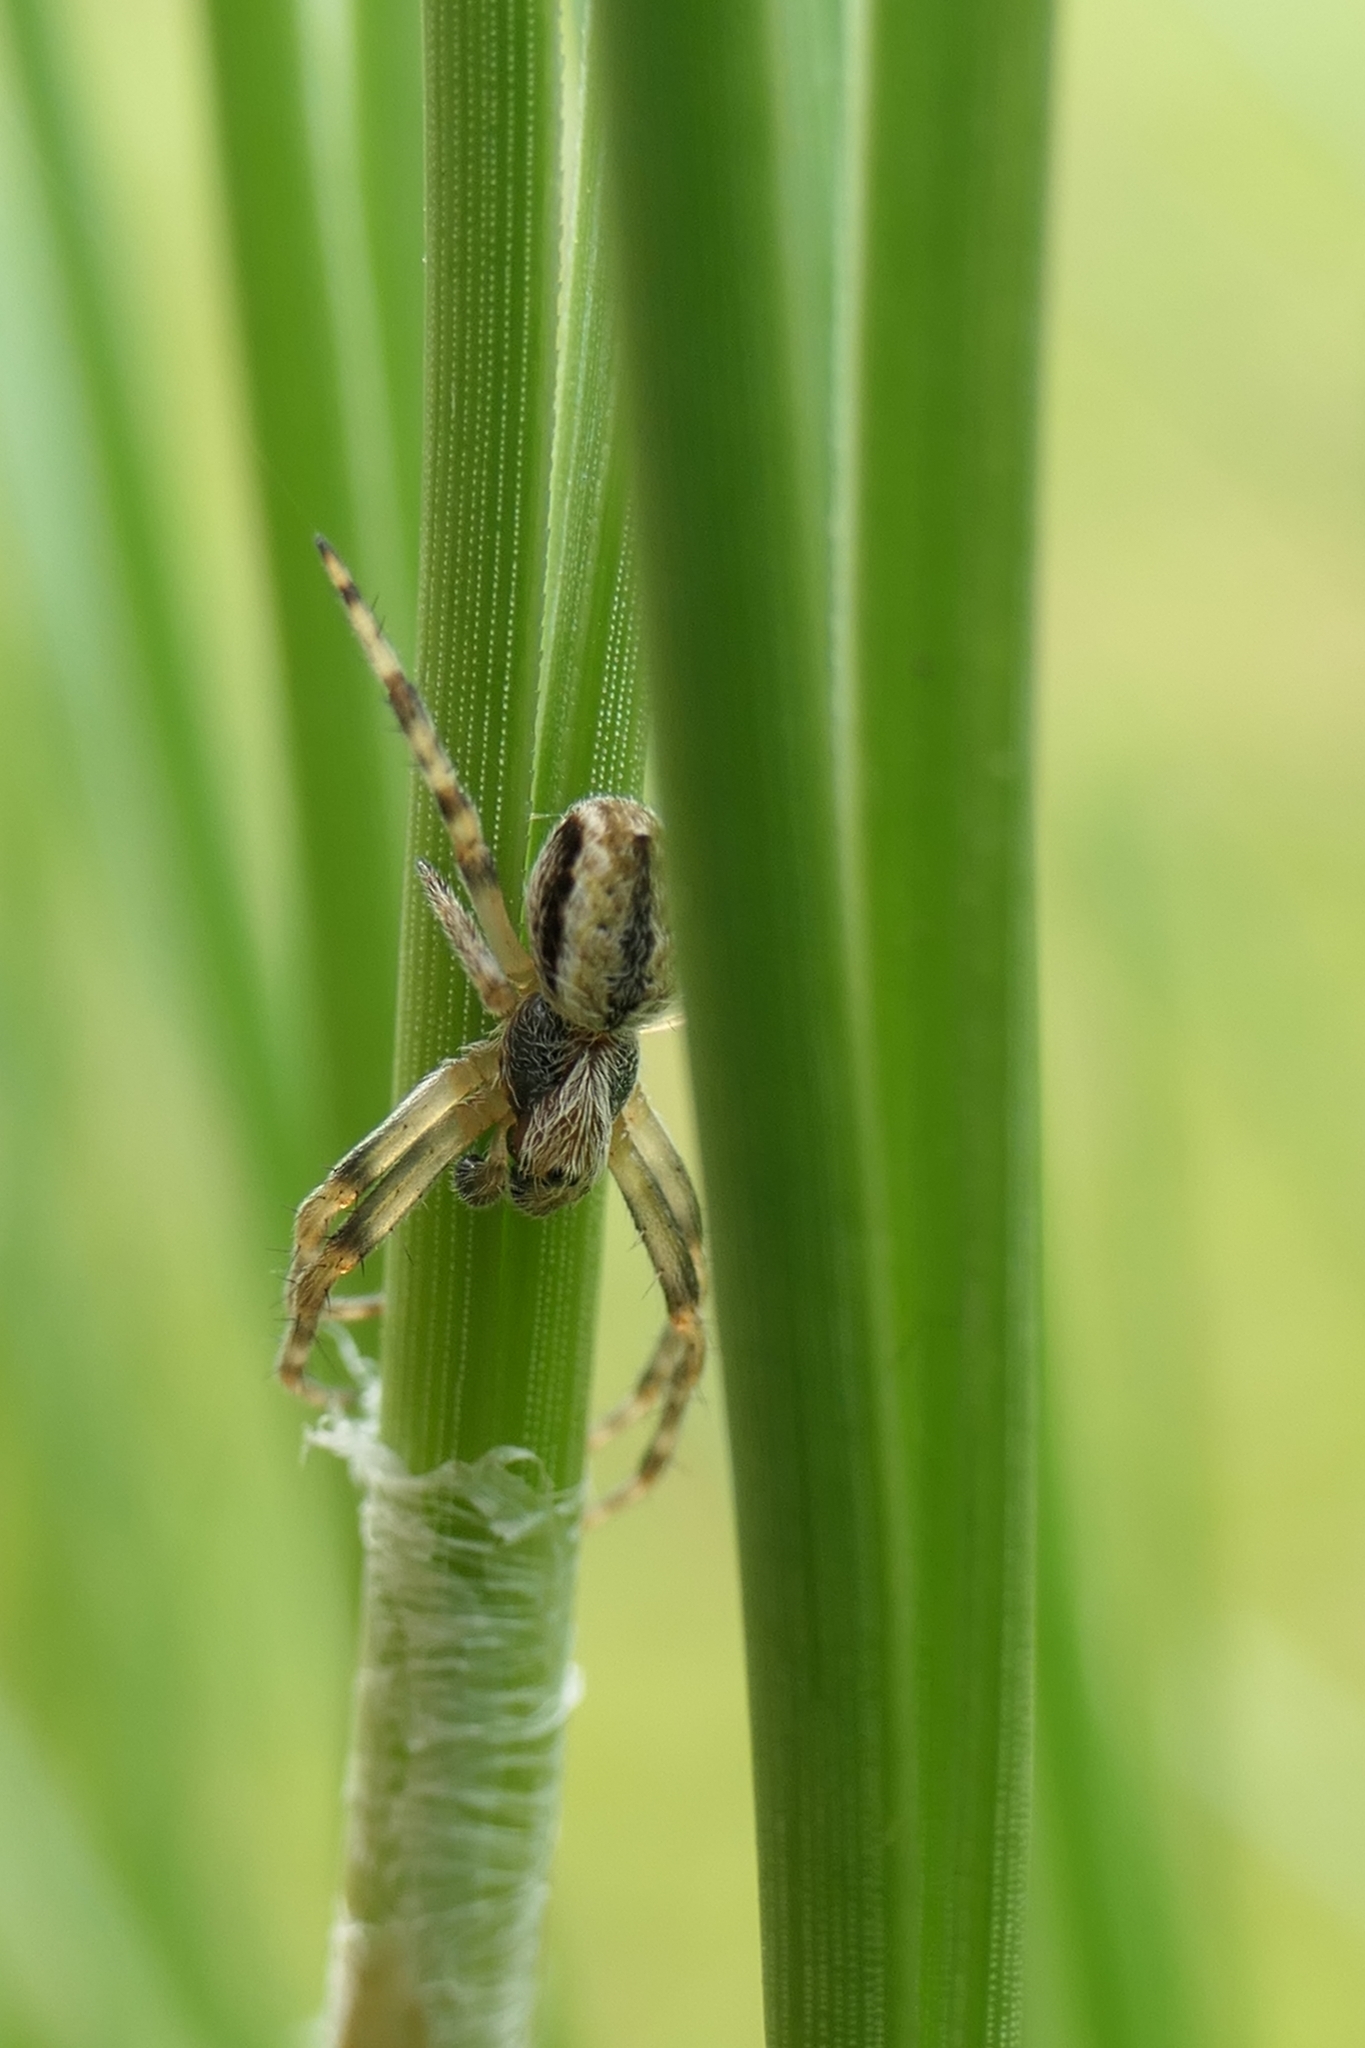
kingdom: Animalia
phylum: Arthropoda
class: Arachnida
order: Araneae
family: Araneidae
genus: Salsa
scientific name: Salsa fuliginata
